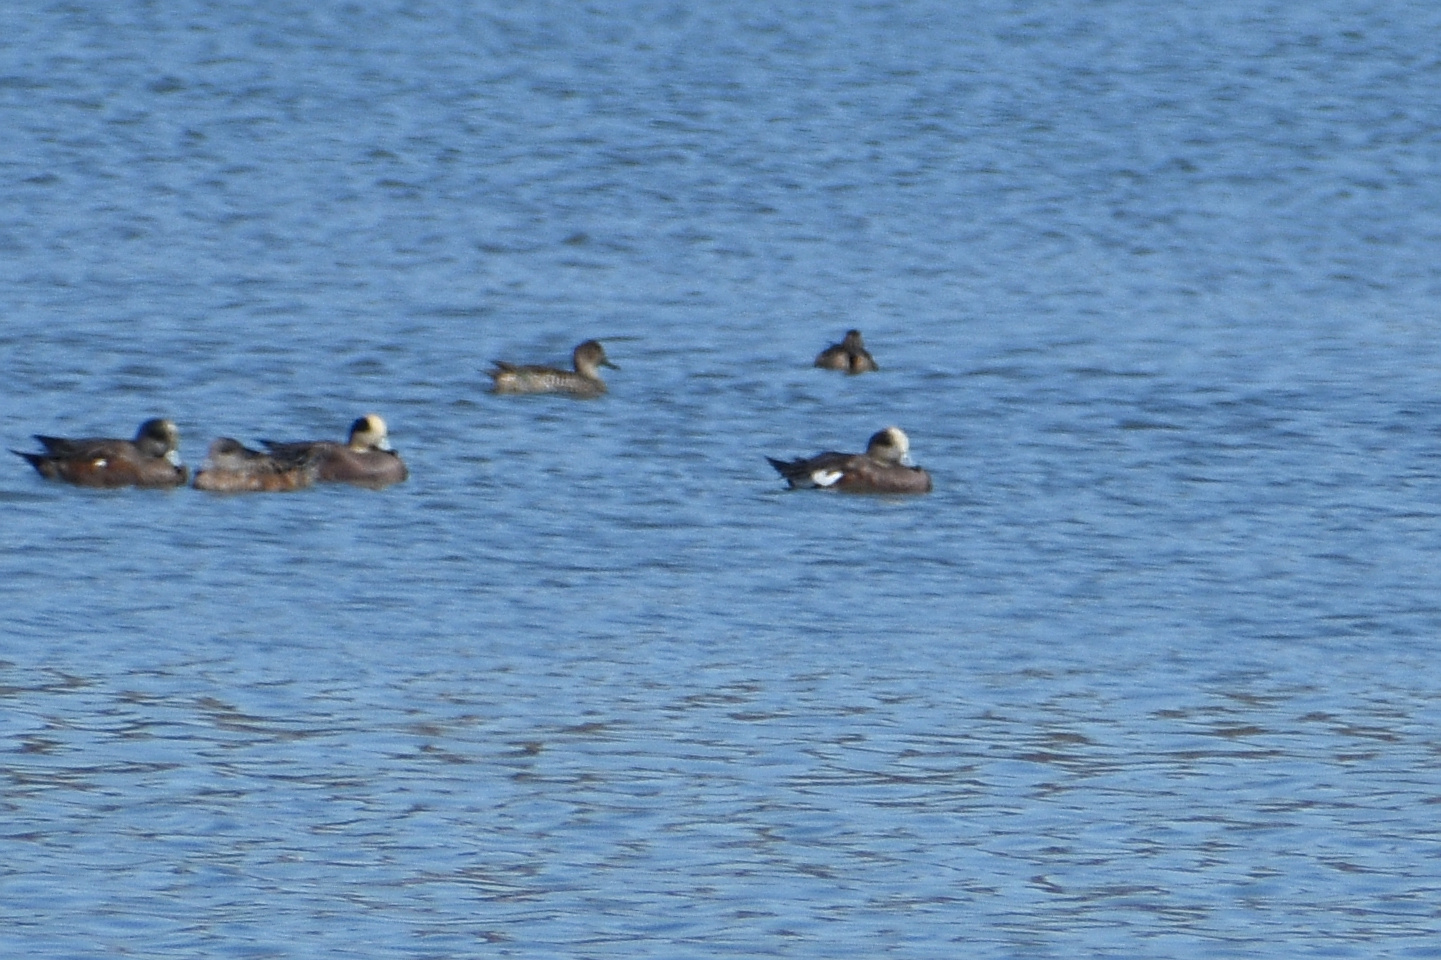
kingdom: Animalia
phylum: Chordata
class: Aves
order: Anseriformes
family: Anatidae
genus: Mareca
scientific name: Mareca americana
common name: American wigeon
